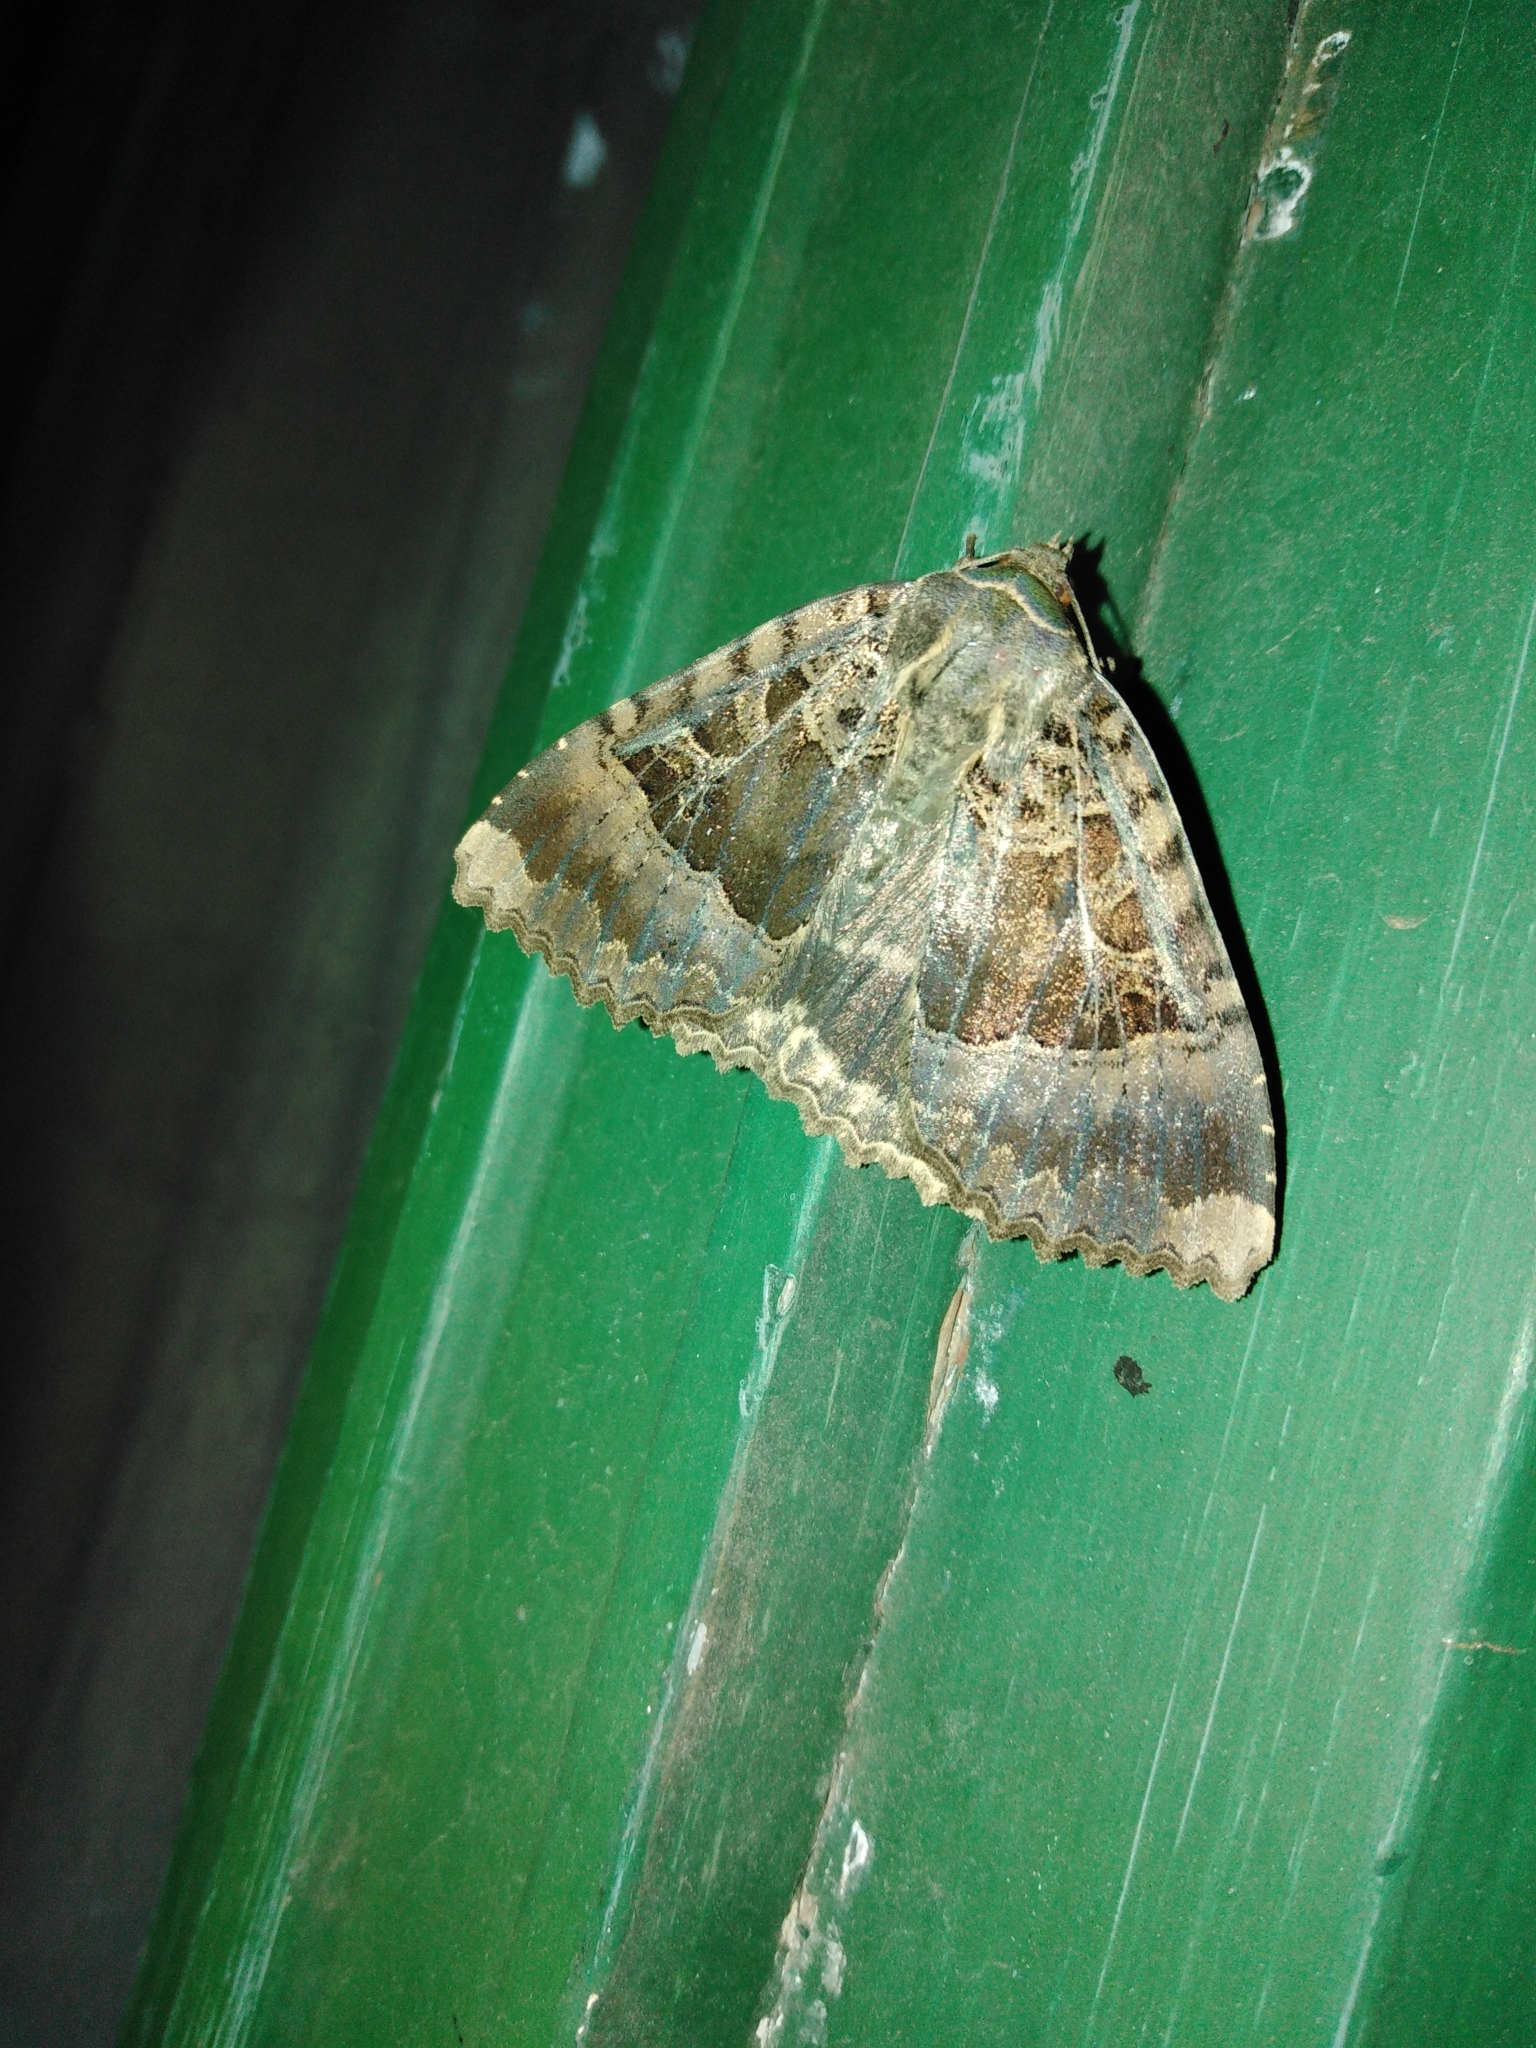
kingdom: Animalia
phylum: Arthropoda
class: Insecta
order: Lepidoptera
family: Noctuidae
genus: Mormo
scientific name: Mormo maura
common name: Old lady
